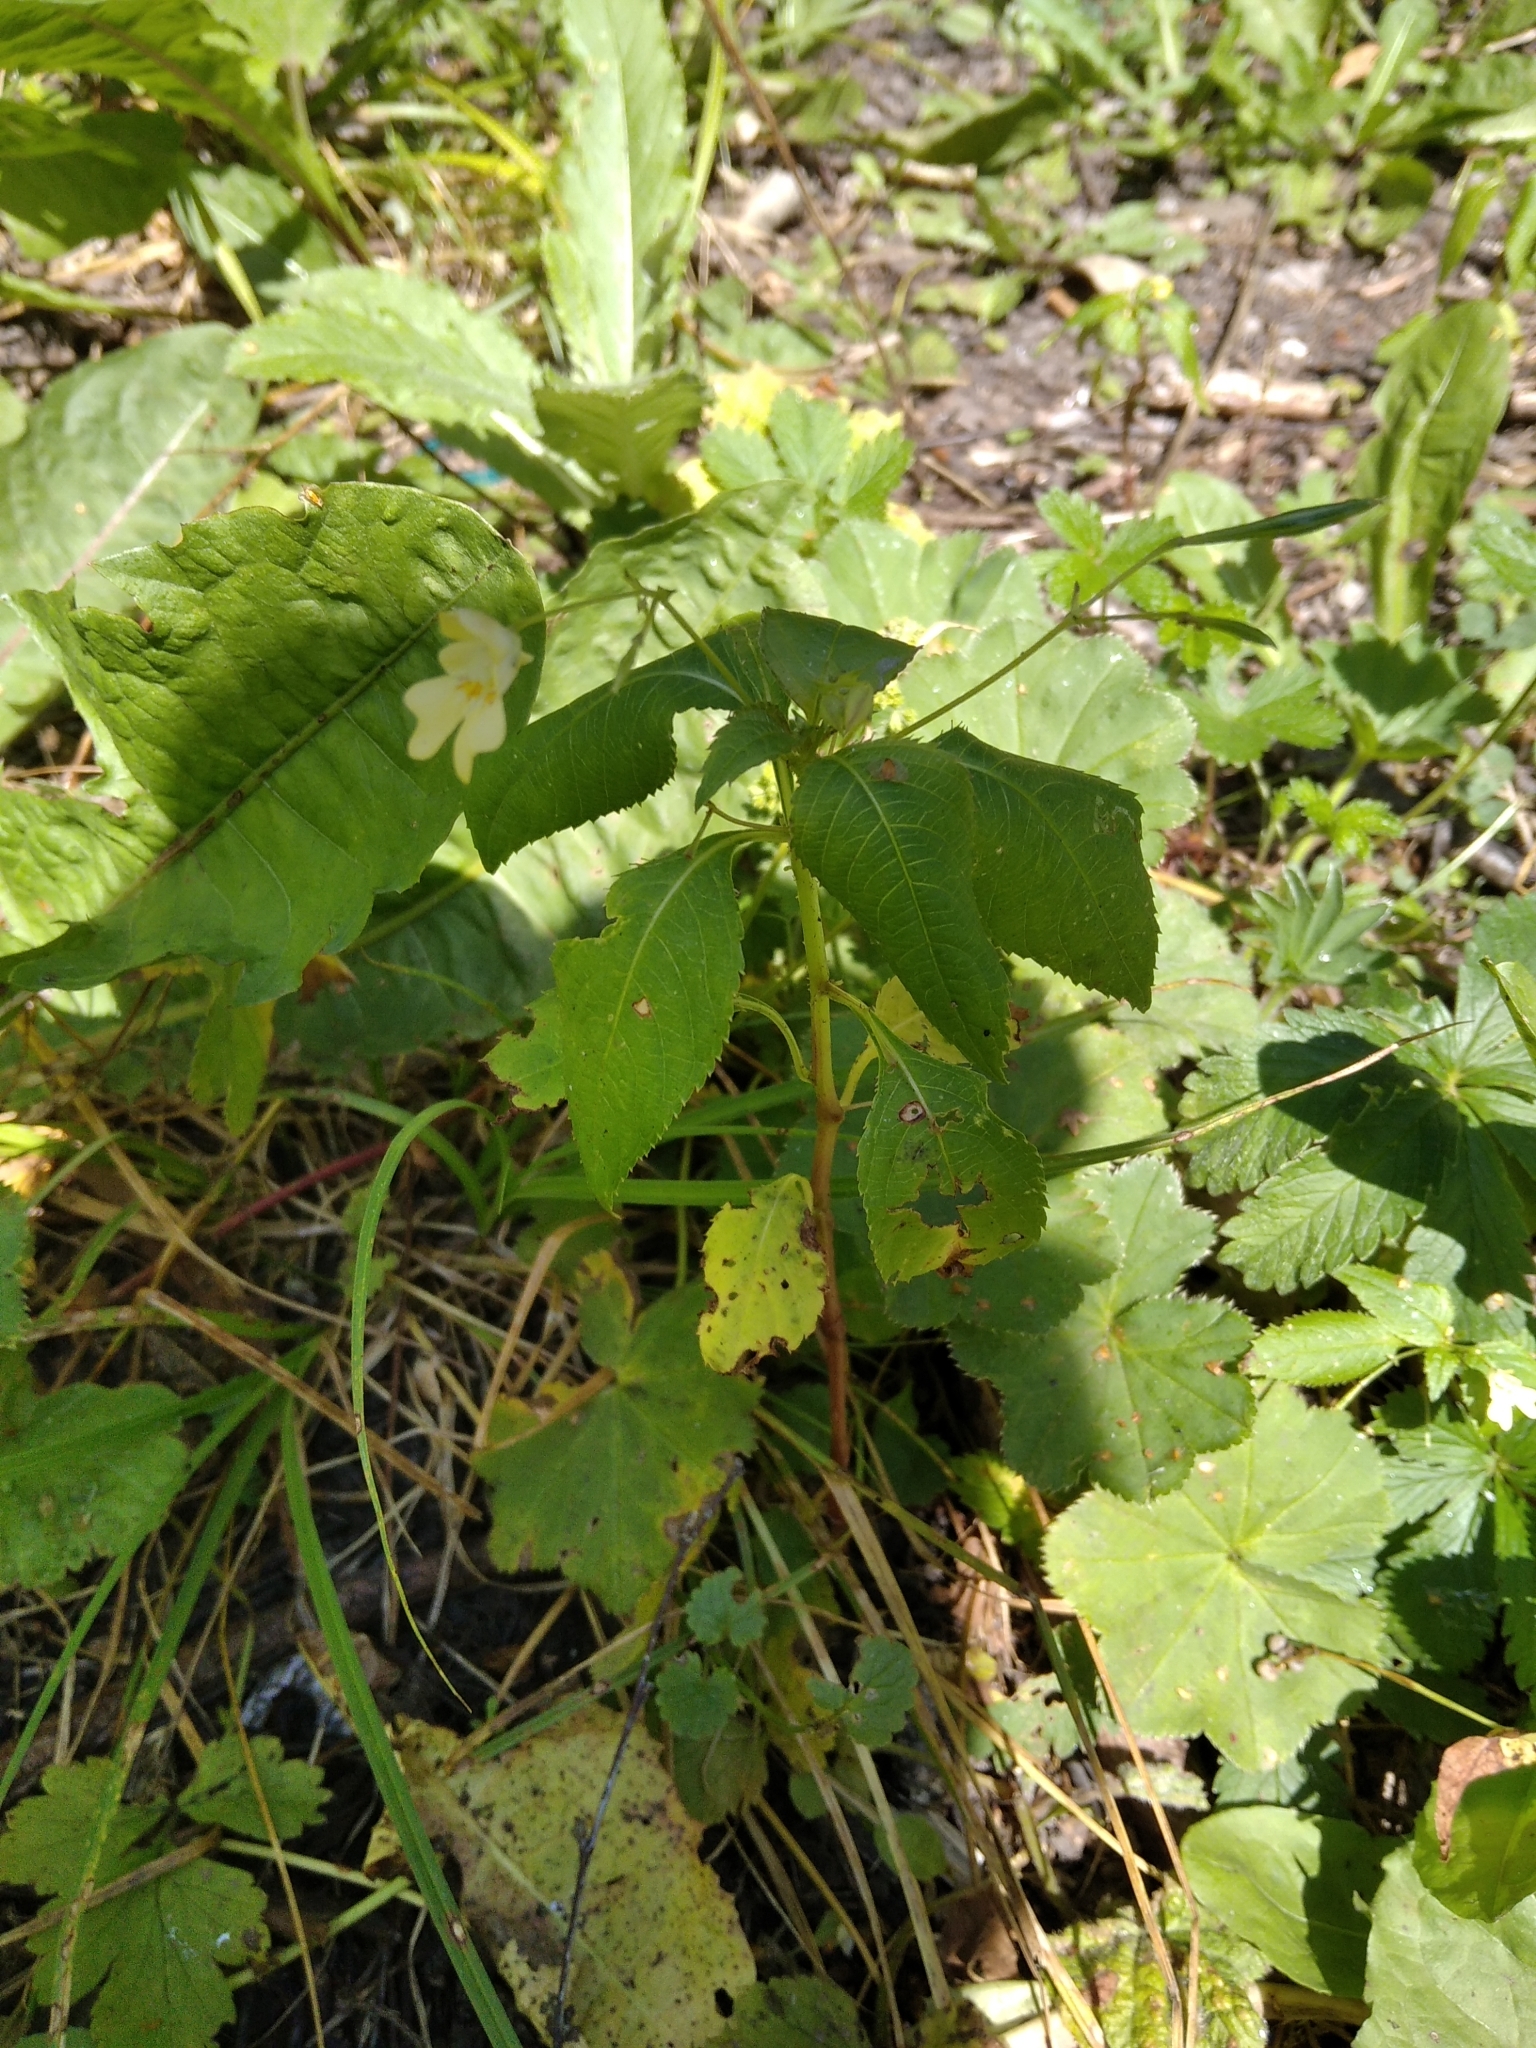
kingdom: Plantae
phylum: Tracheophyta
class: Magnoliopsida
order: Ericales
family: Balsaminaceae
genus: Impatiens
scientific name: Impatiens parviflora
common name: Small balsam
